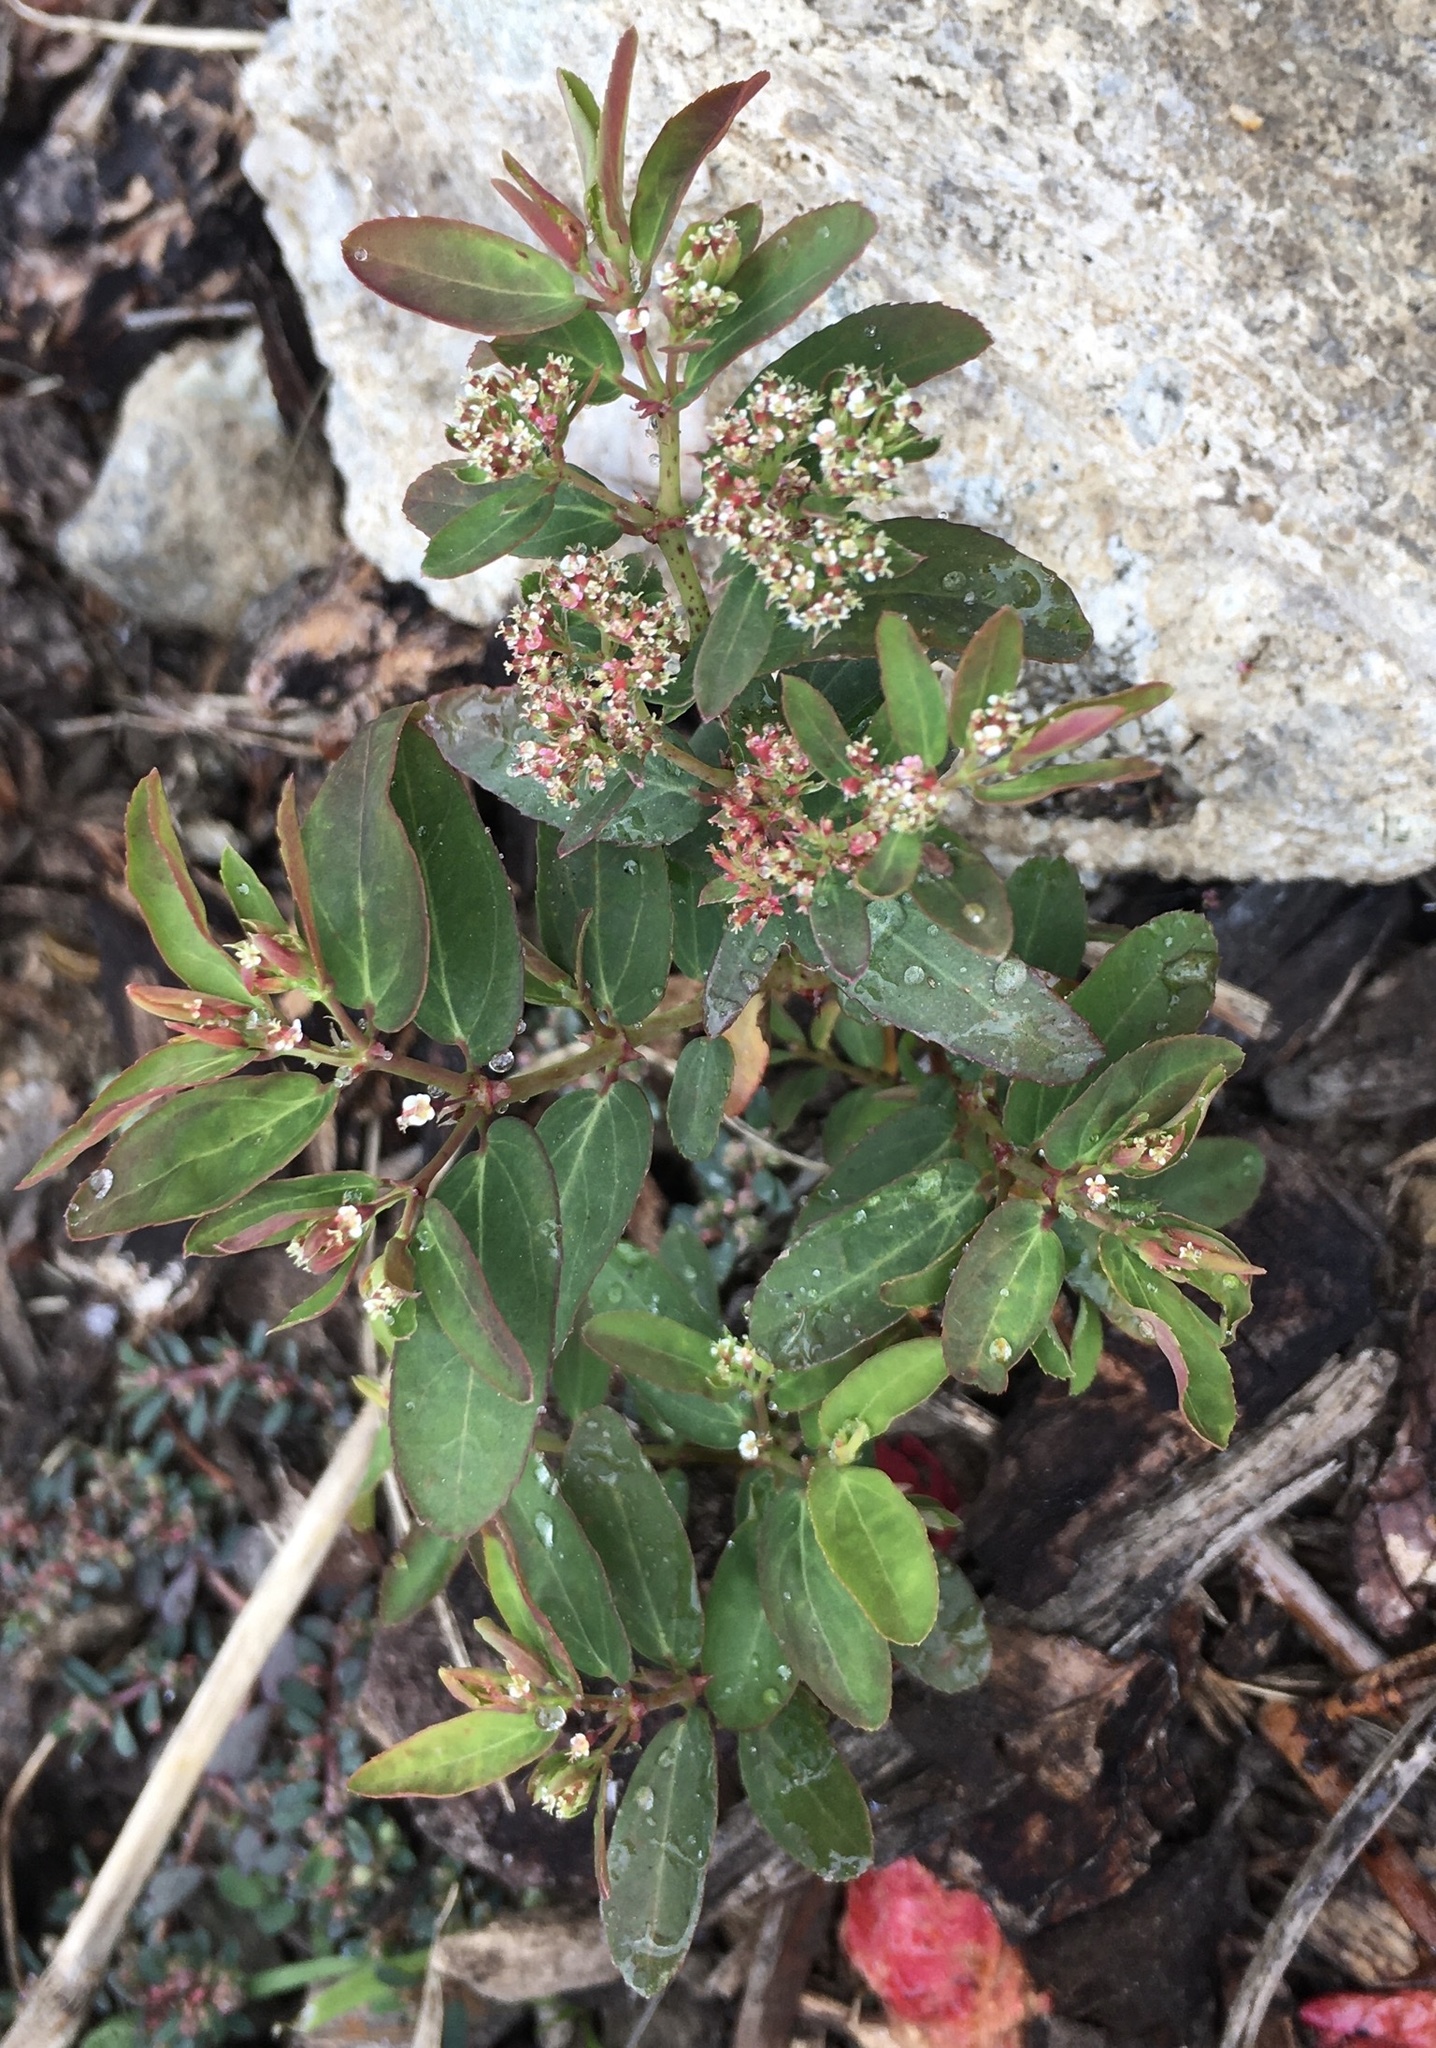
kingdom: Plantae
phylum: Tracheophyta
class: Magnoliopsida
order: Malpighiales
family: Euphorbiaceae
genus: Euphorbia
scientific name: Euphorbia hypericifolia
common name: Graceful sandmat
